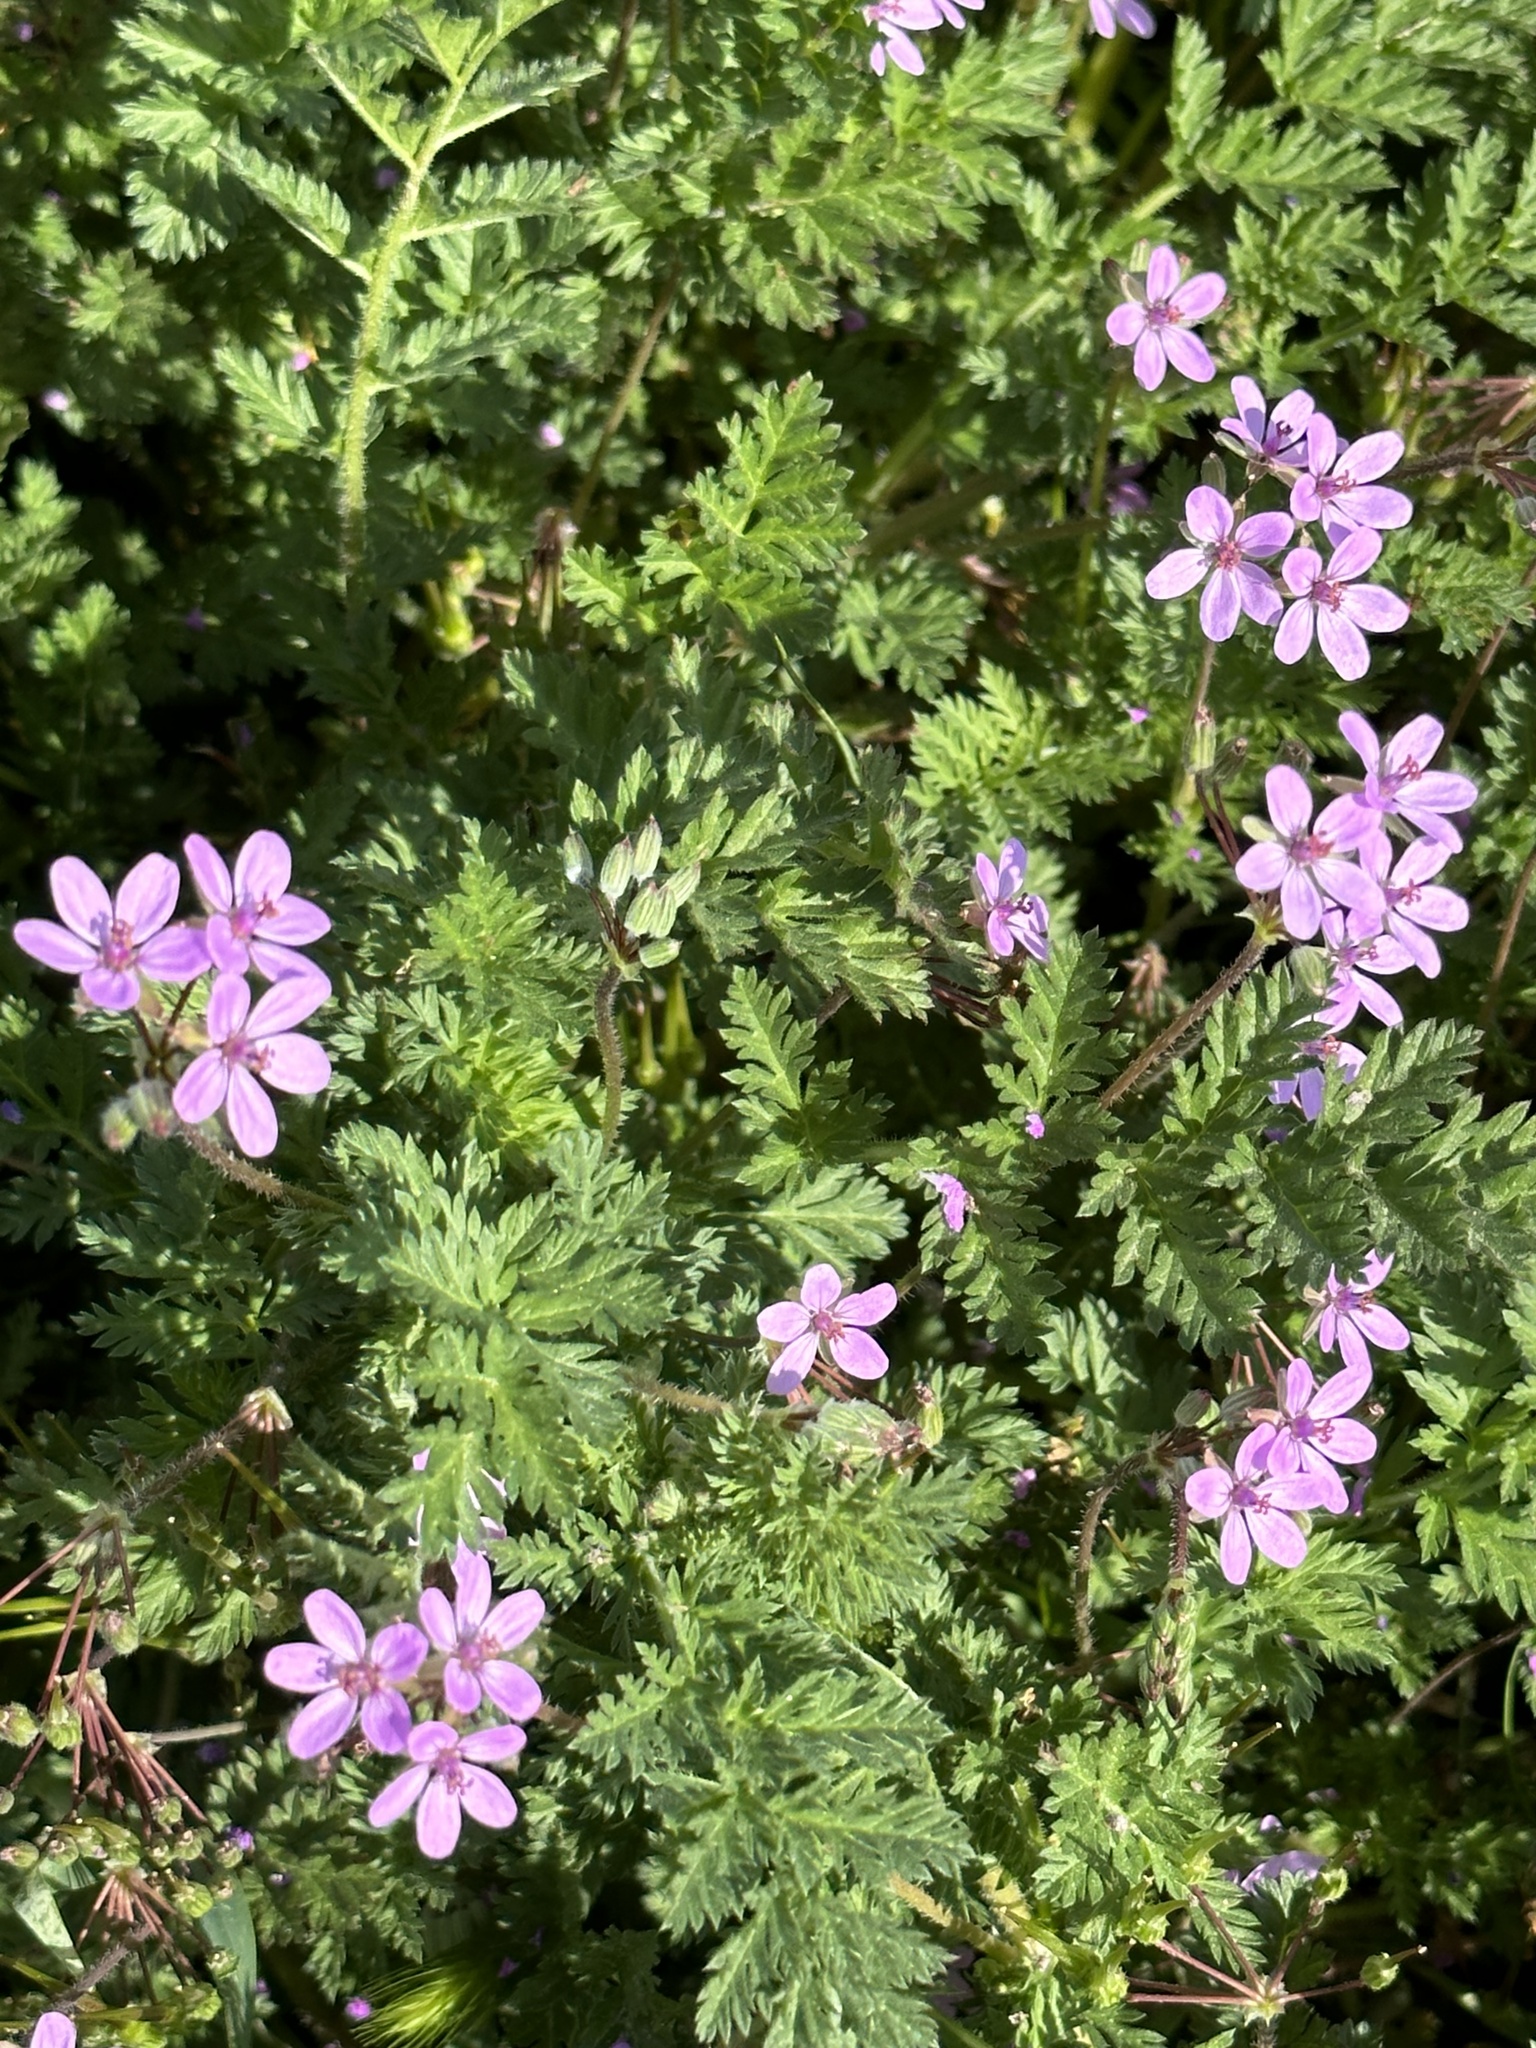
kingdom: Plantae
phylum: Tracheophyta
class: Magnoliopsida
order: Geraniales
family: Geraniaceae
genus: Erodium
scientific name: Erodium cicutarium
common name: Common stork's-bill
